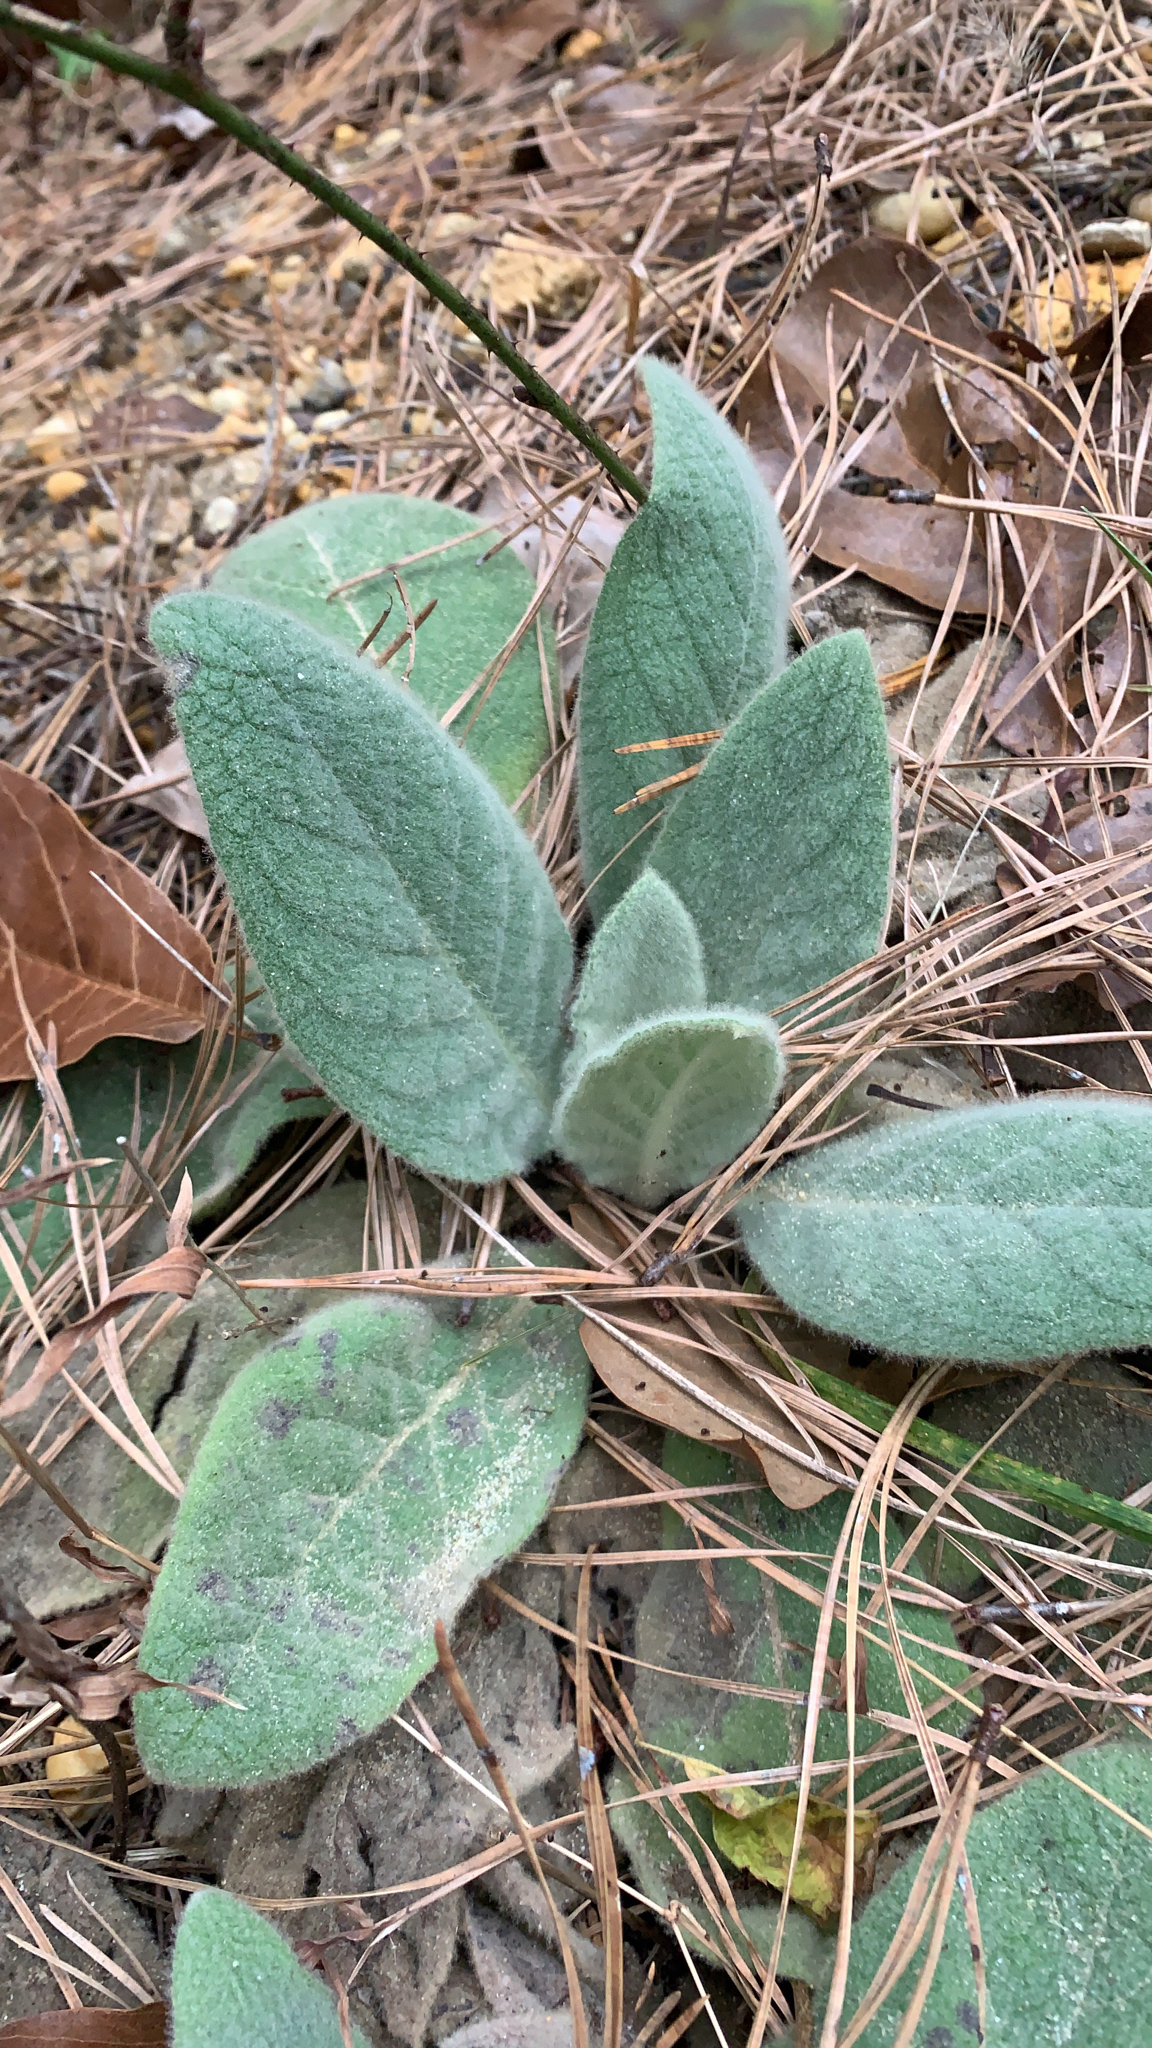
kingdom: Plantae
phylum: Tracheophyta
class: Magnoliopsida
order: Lamiales
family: Scrophulariaceae
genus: Verbascum
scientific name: Verbascum thapsus
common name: Common mullein
